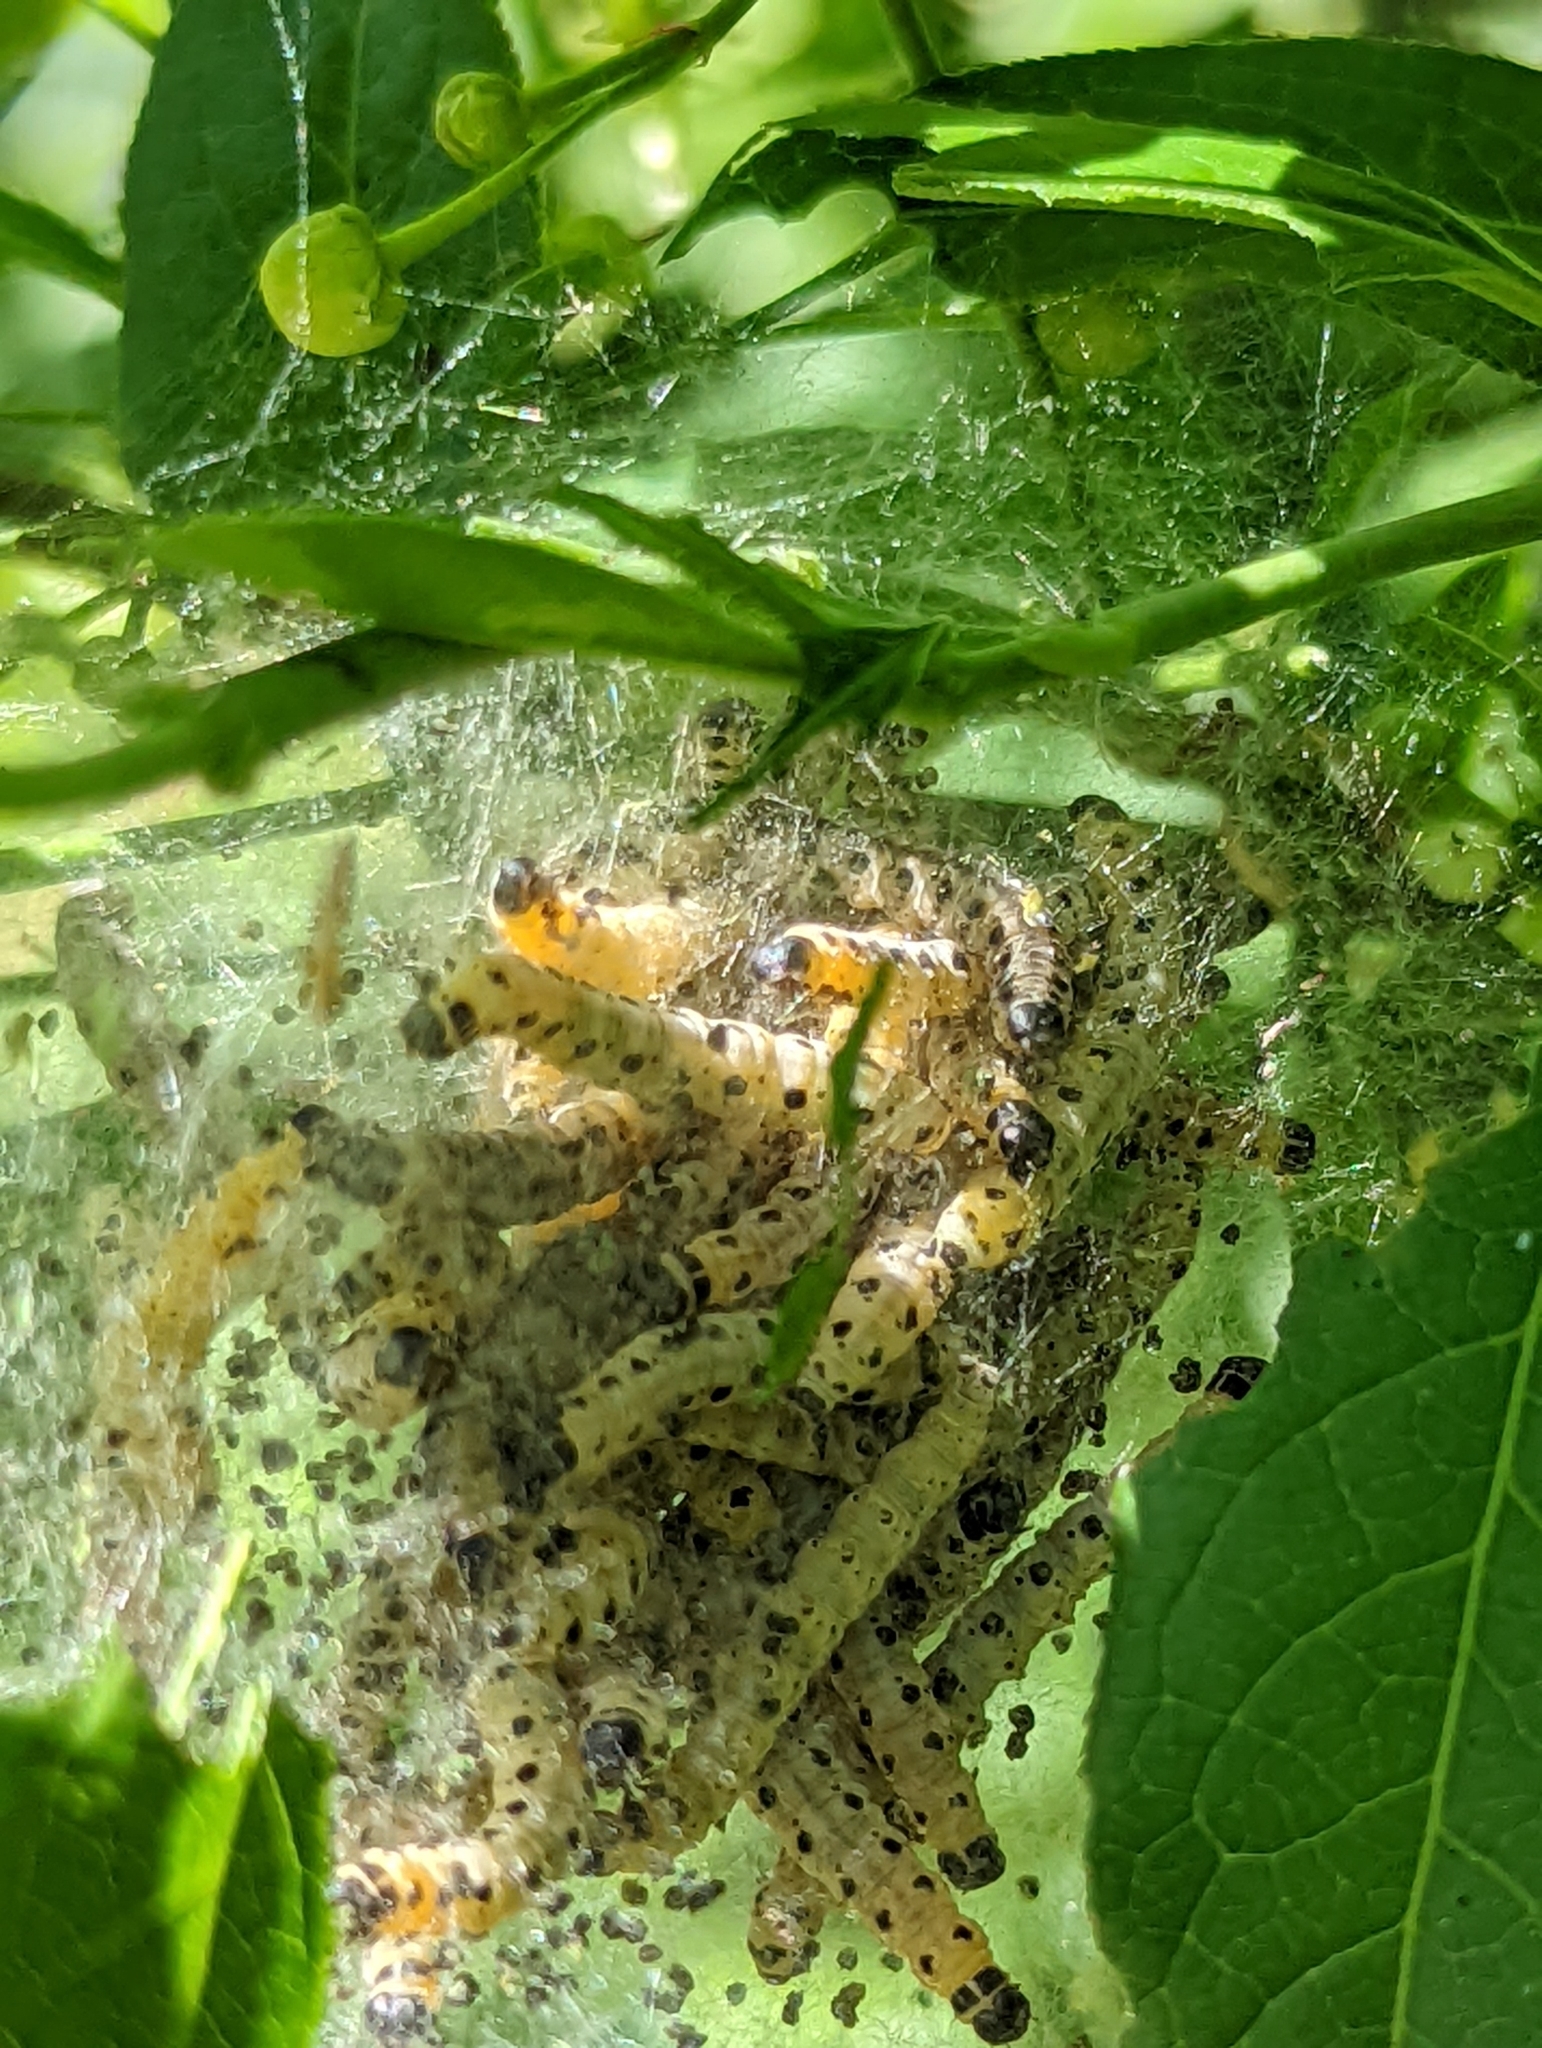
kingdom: Animalia
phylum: Arthropoda
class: Insecta
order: Lepidoptera
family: Yponomeutidae
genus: Yponomeuta
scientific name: Yponomeuta cagnagellus
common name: Spindle ermine
